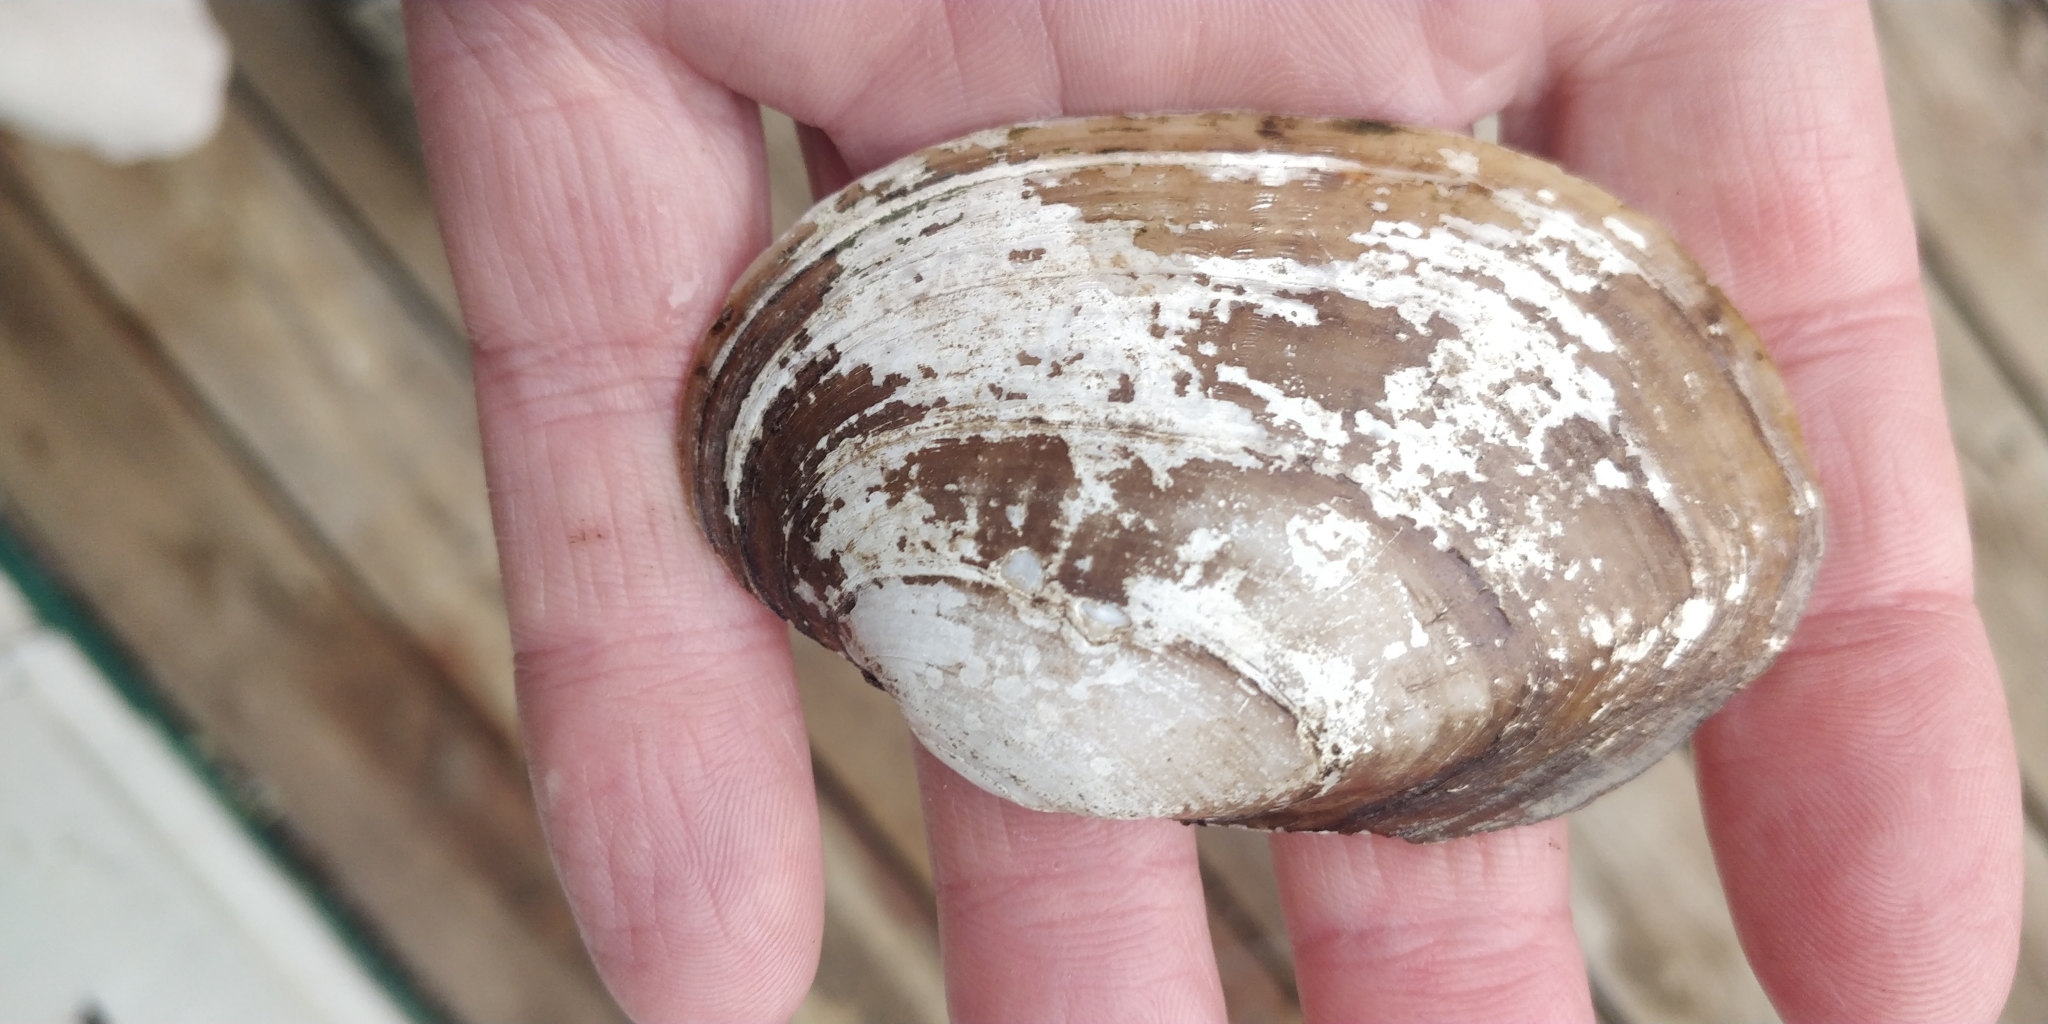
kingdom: Animalia
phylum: Mollusca
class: Bivalvia
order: Unionida
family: Unionidae
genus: Lampsilis
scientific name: Lampsilis siliquoidea
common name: Fatmucket
